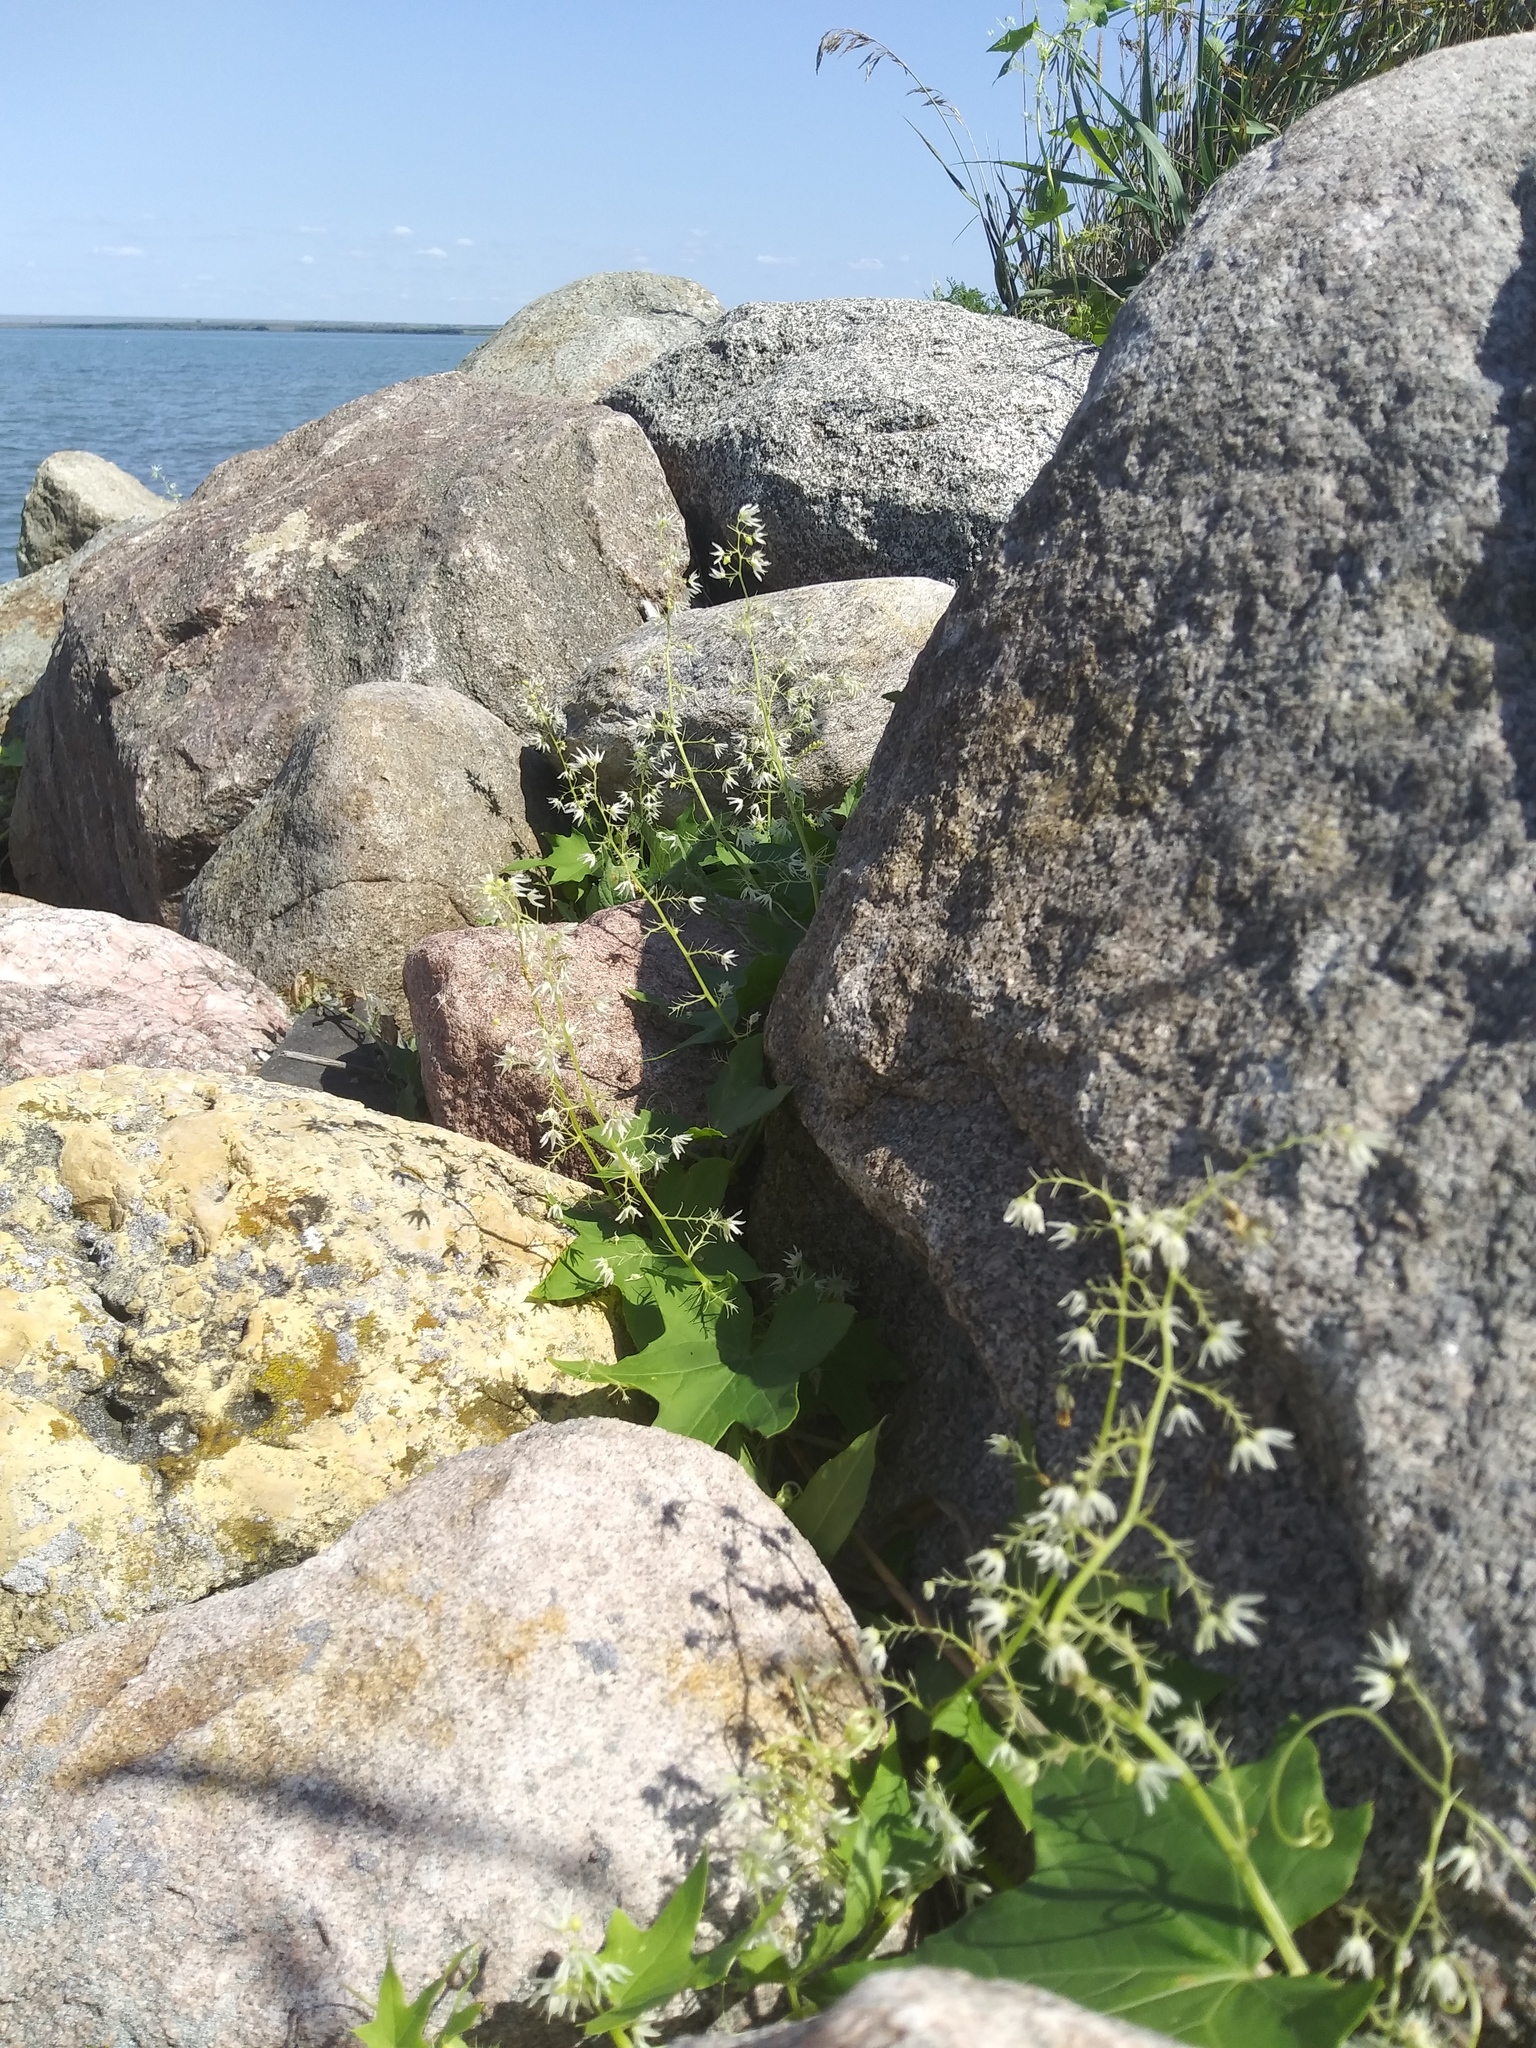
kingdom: Plantae
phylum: Tracheophyta
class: Magnoliopsida
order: Cucurbitales
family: Cucurbitaceae
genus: Echinocystis
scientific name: Echinocystis lobata
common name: Wild cucumber
